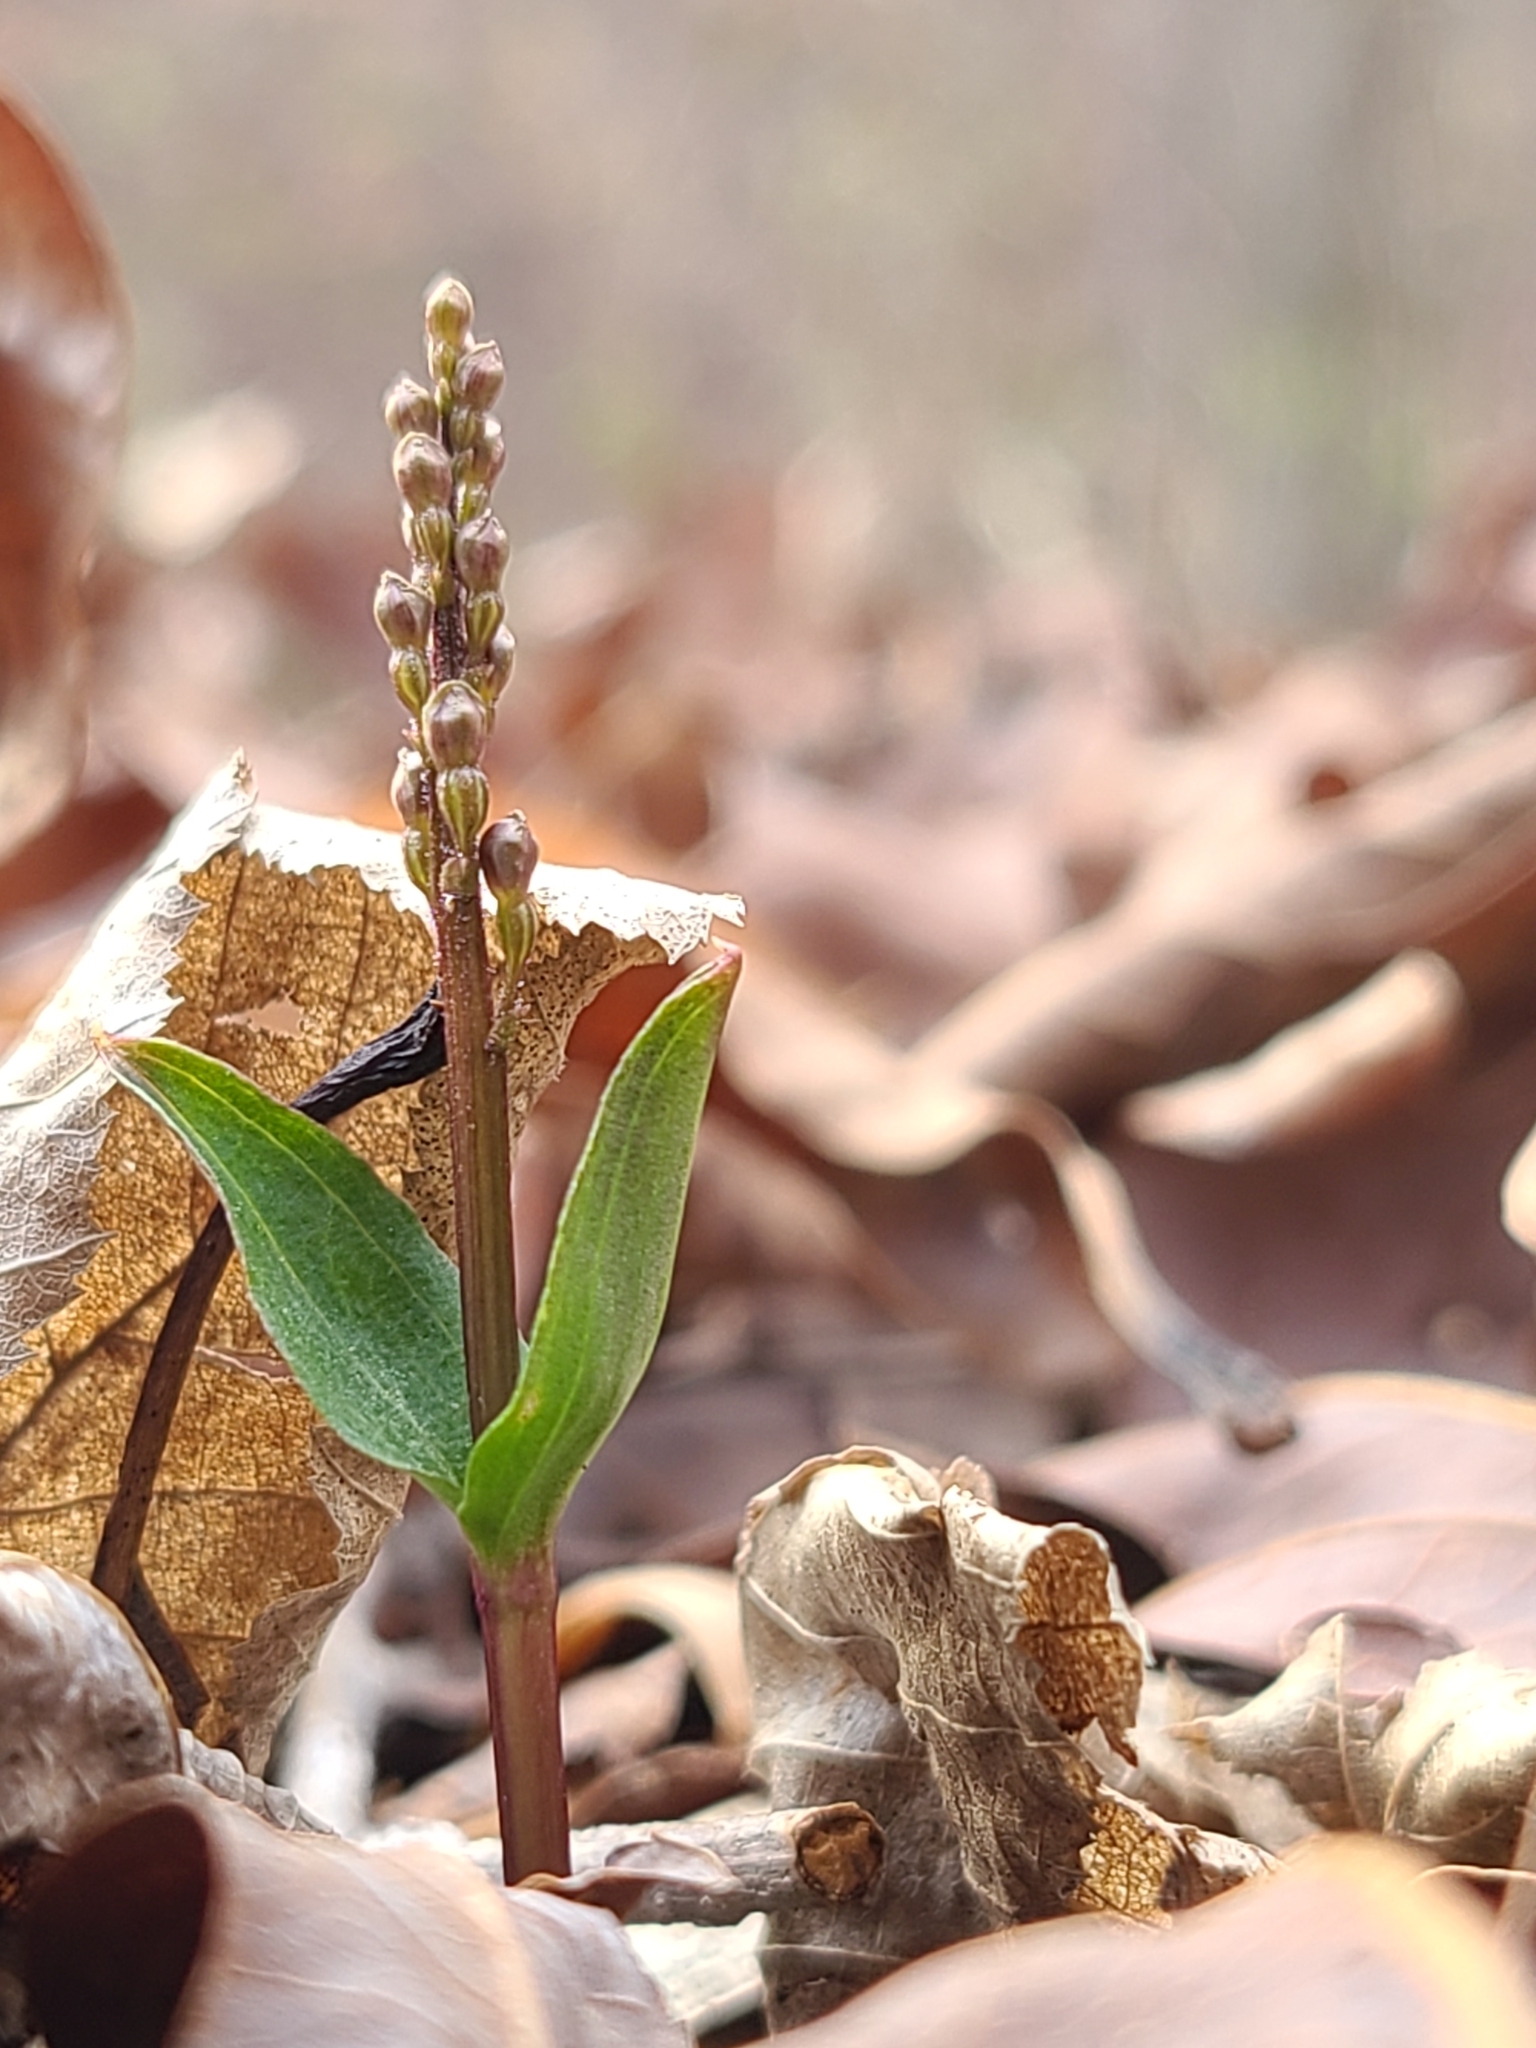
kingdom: Plantae
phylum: Tracheophyta
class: Liliopsida
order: Asparagales
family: Orchidaceae
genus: Neottia
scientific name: Neottia bifolia
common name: Southern twayblade
